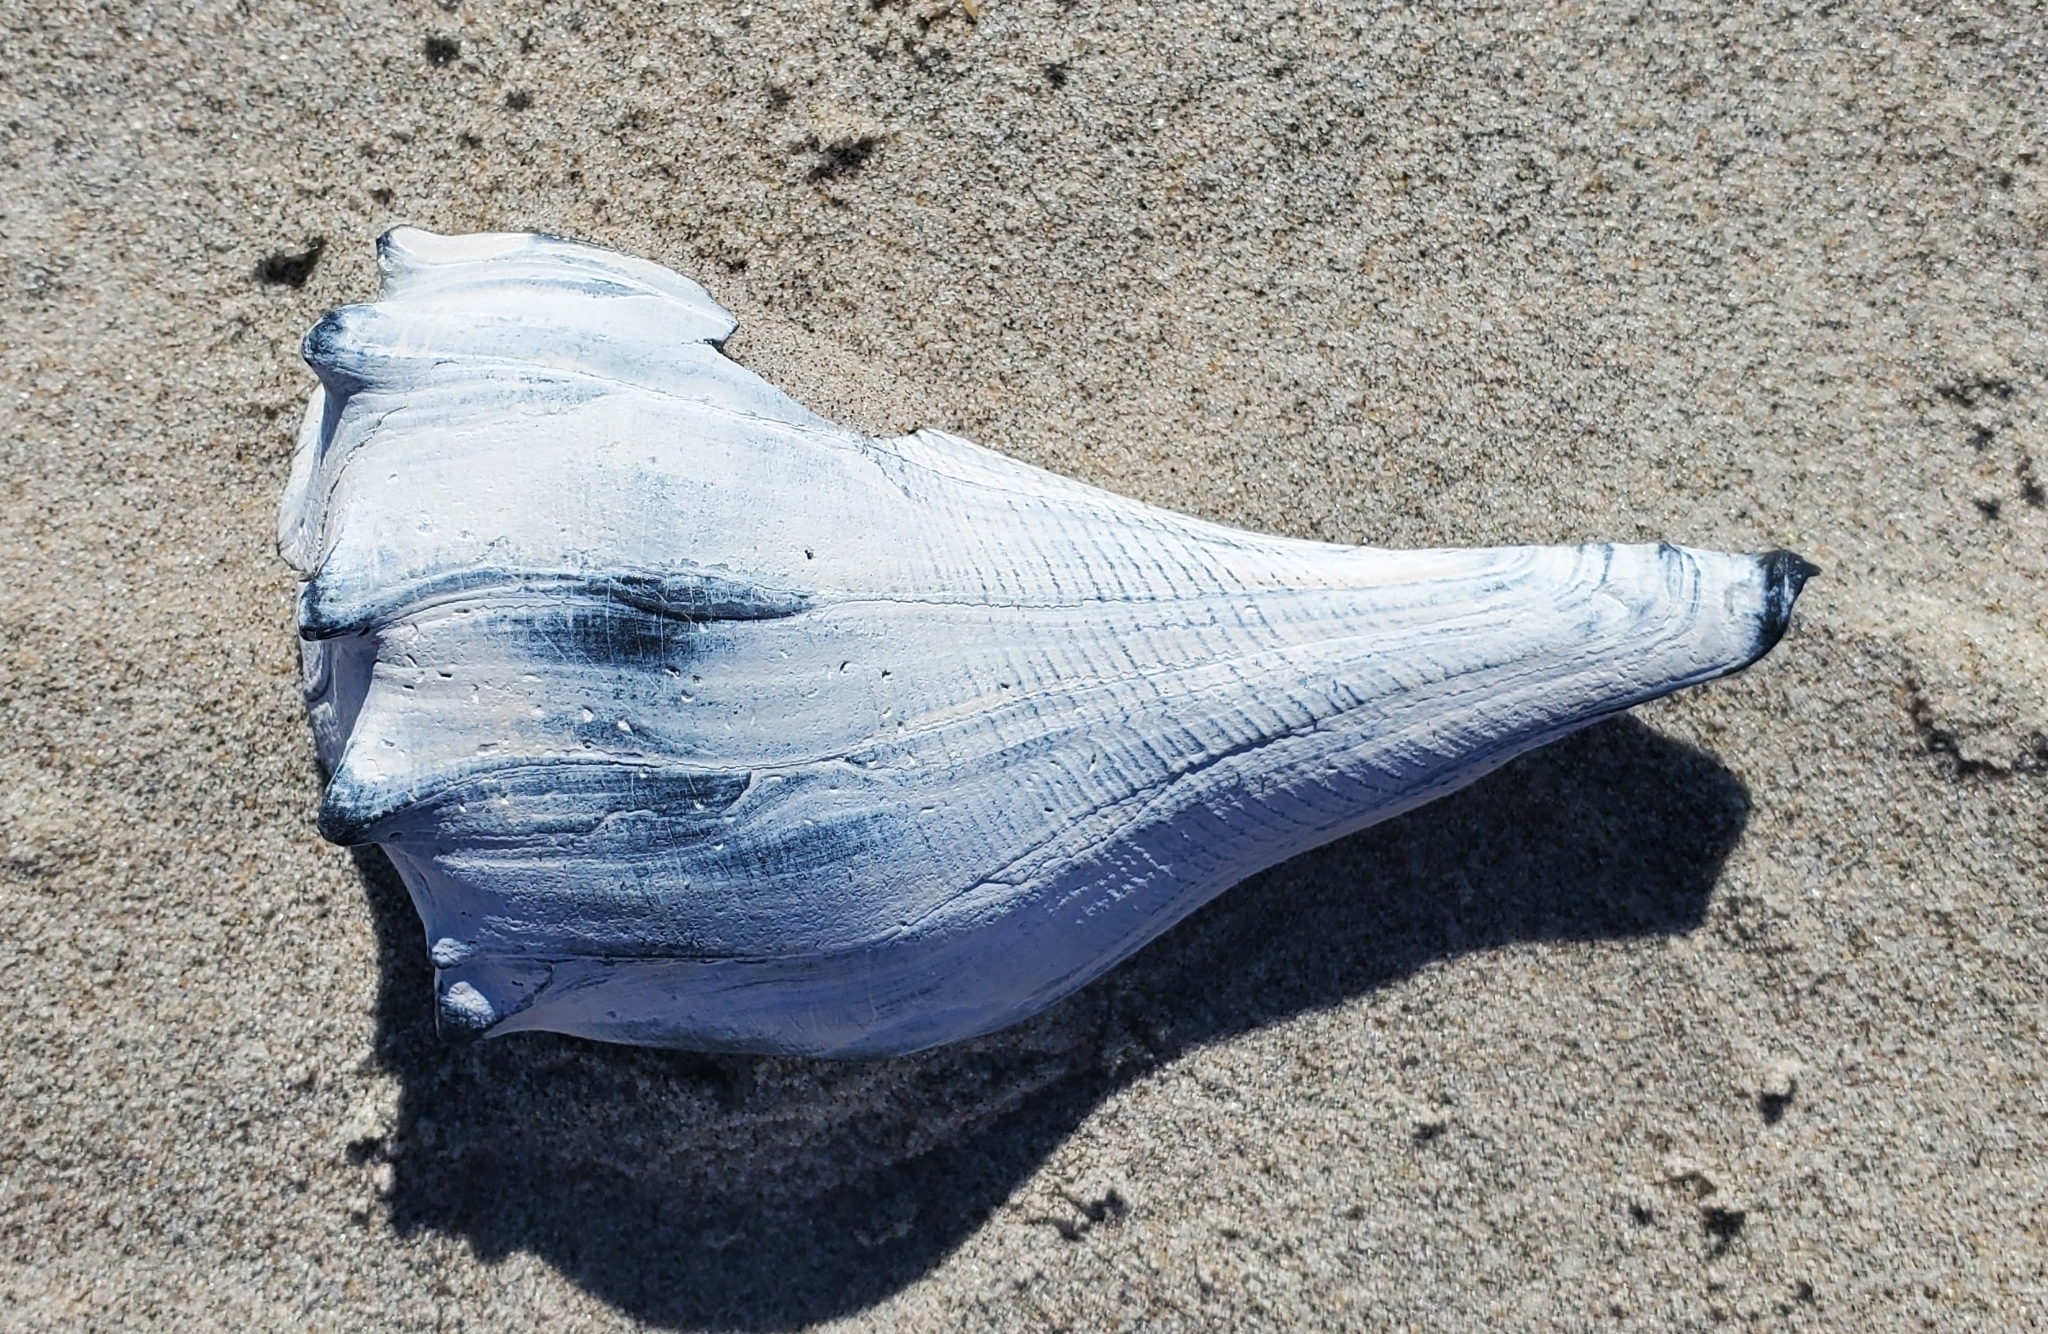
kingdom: Animalia
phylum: Mollusca
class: Gastropoda
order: Neogastropoda
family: Busyconidae
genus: Busycon
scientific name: Busycon carica
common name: Knobbed whelk
